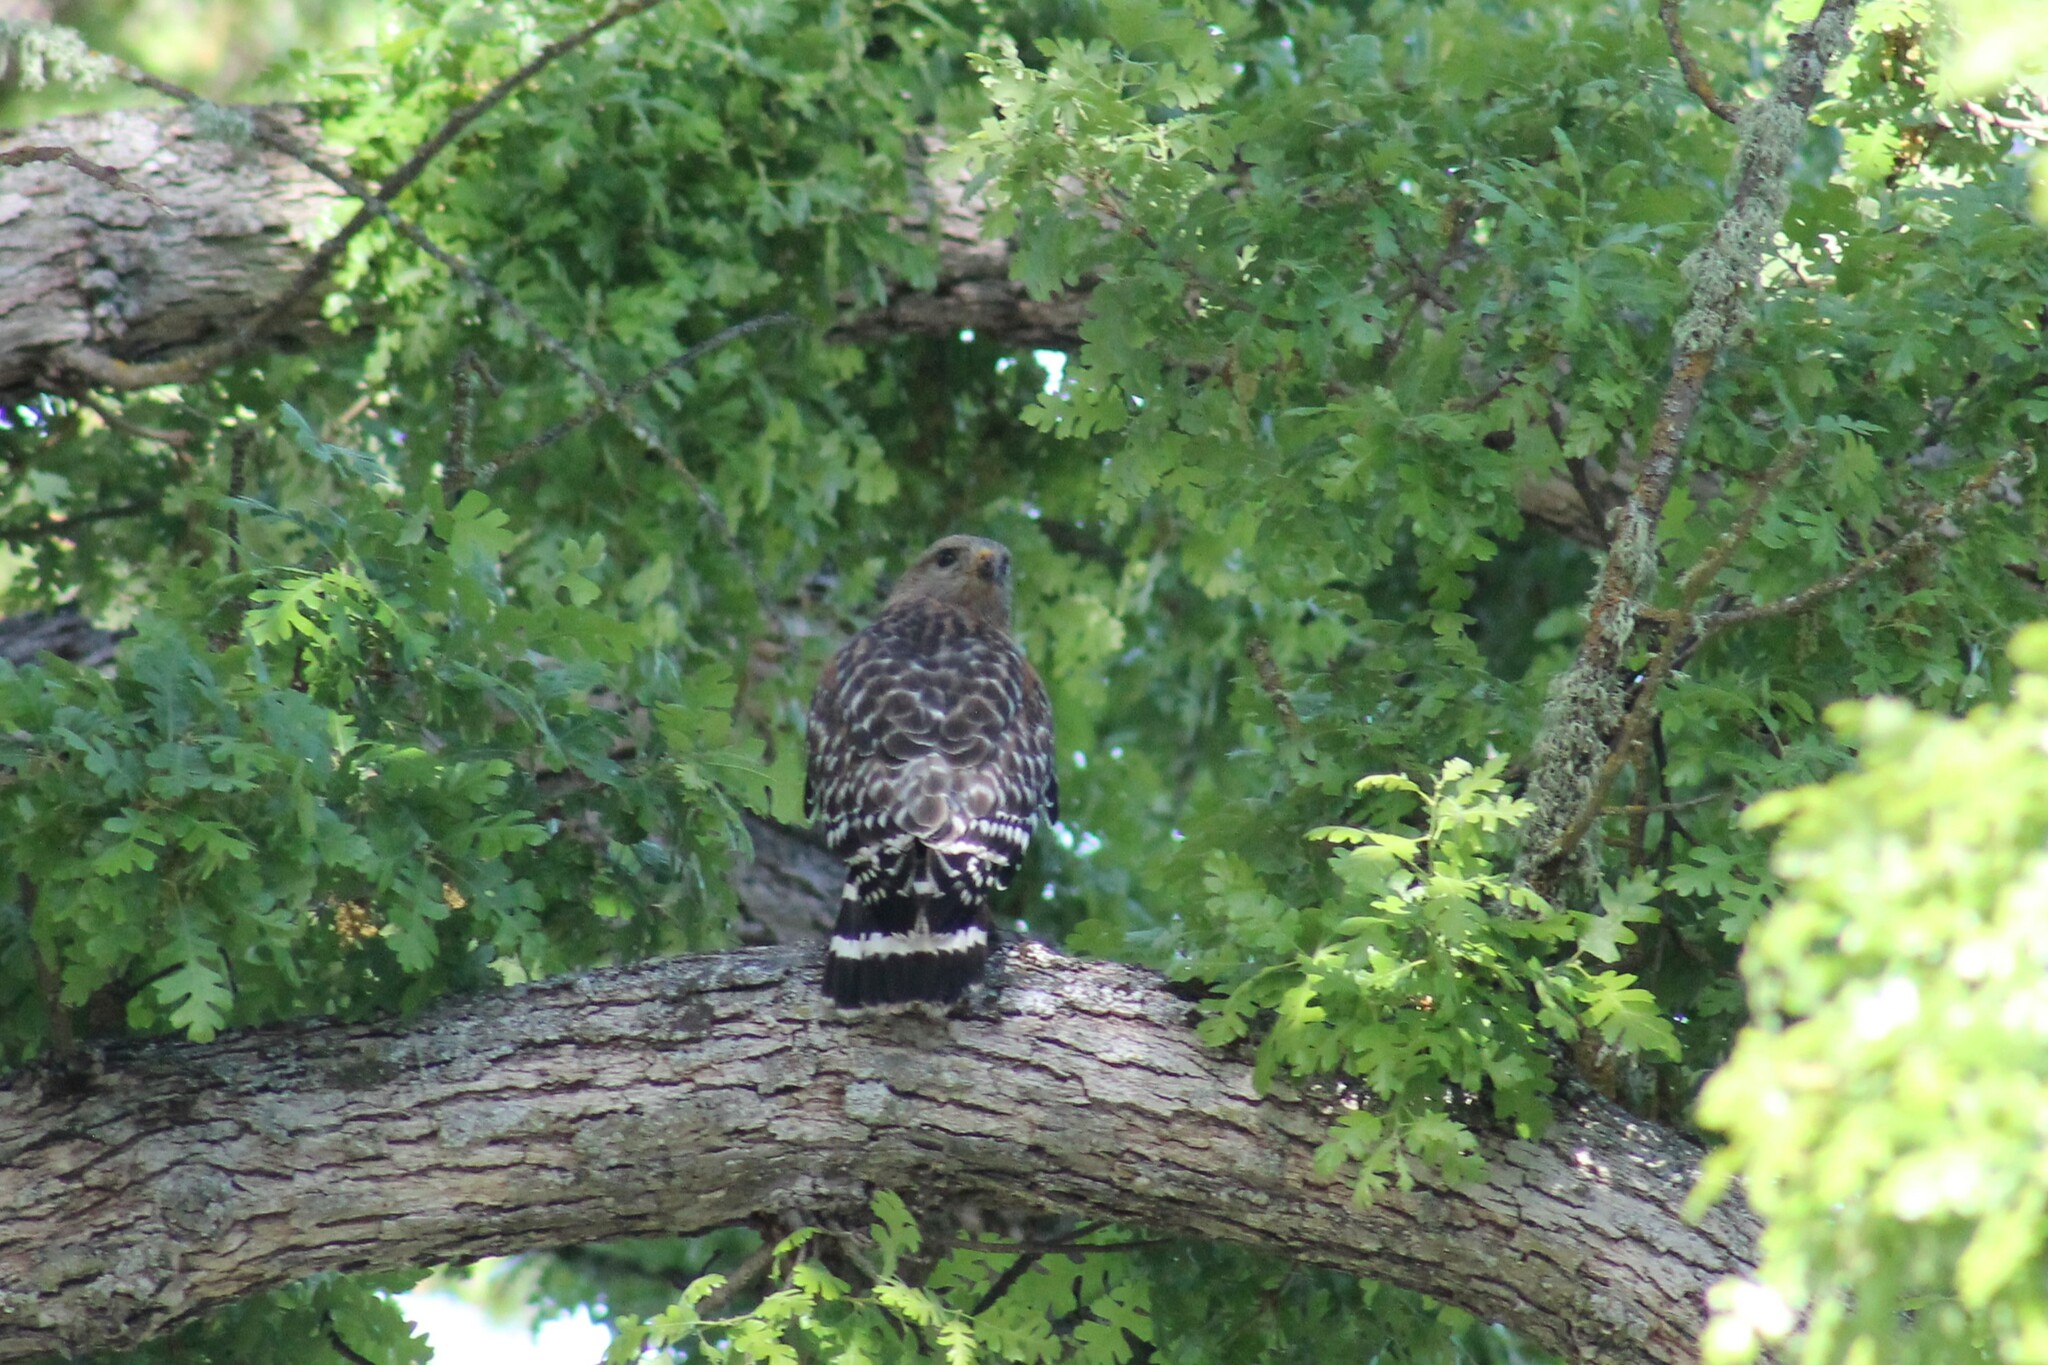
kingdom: Animalia
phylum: Chordata
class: Aves
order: Accipitriformes
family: Accipitridae
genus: Buteo
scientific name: Buteo lineatus
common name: Red-shouldered hawk
